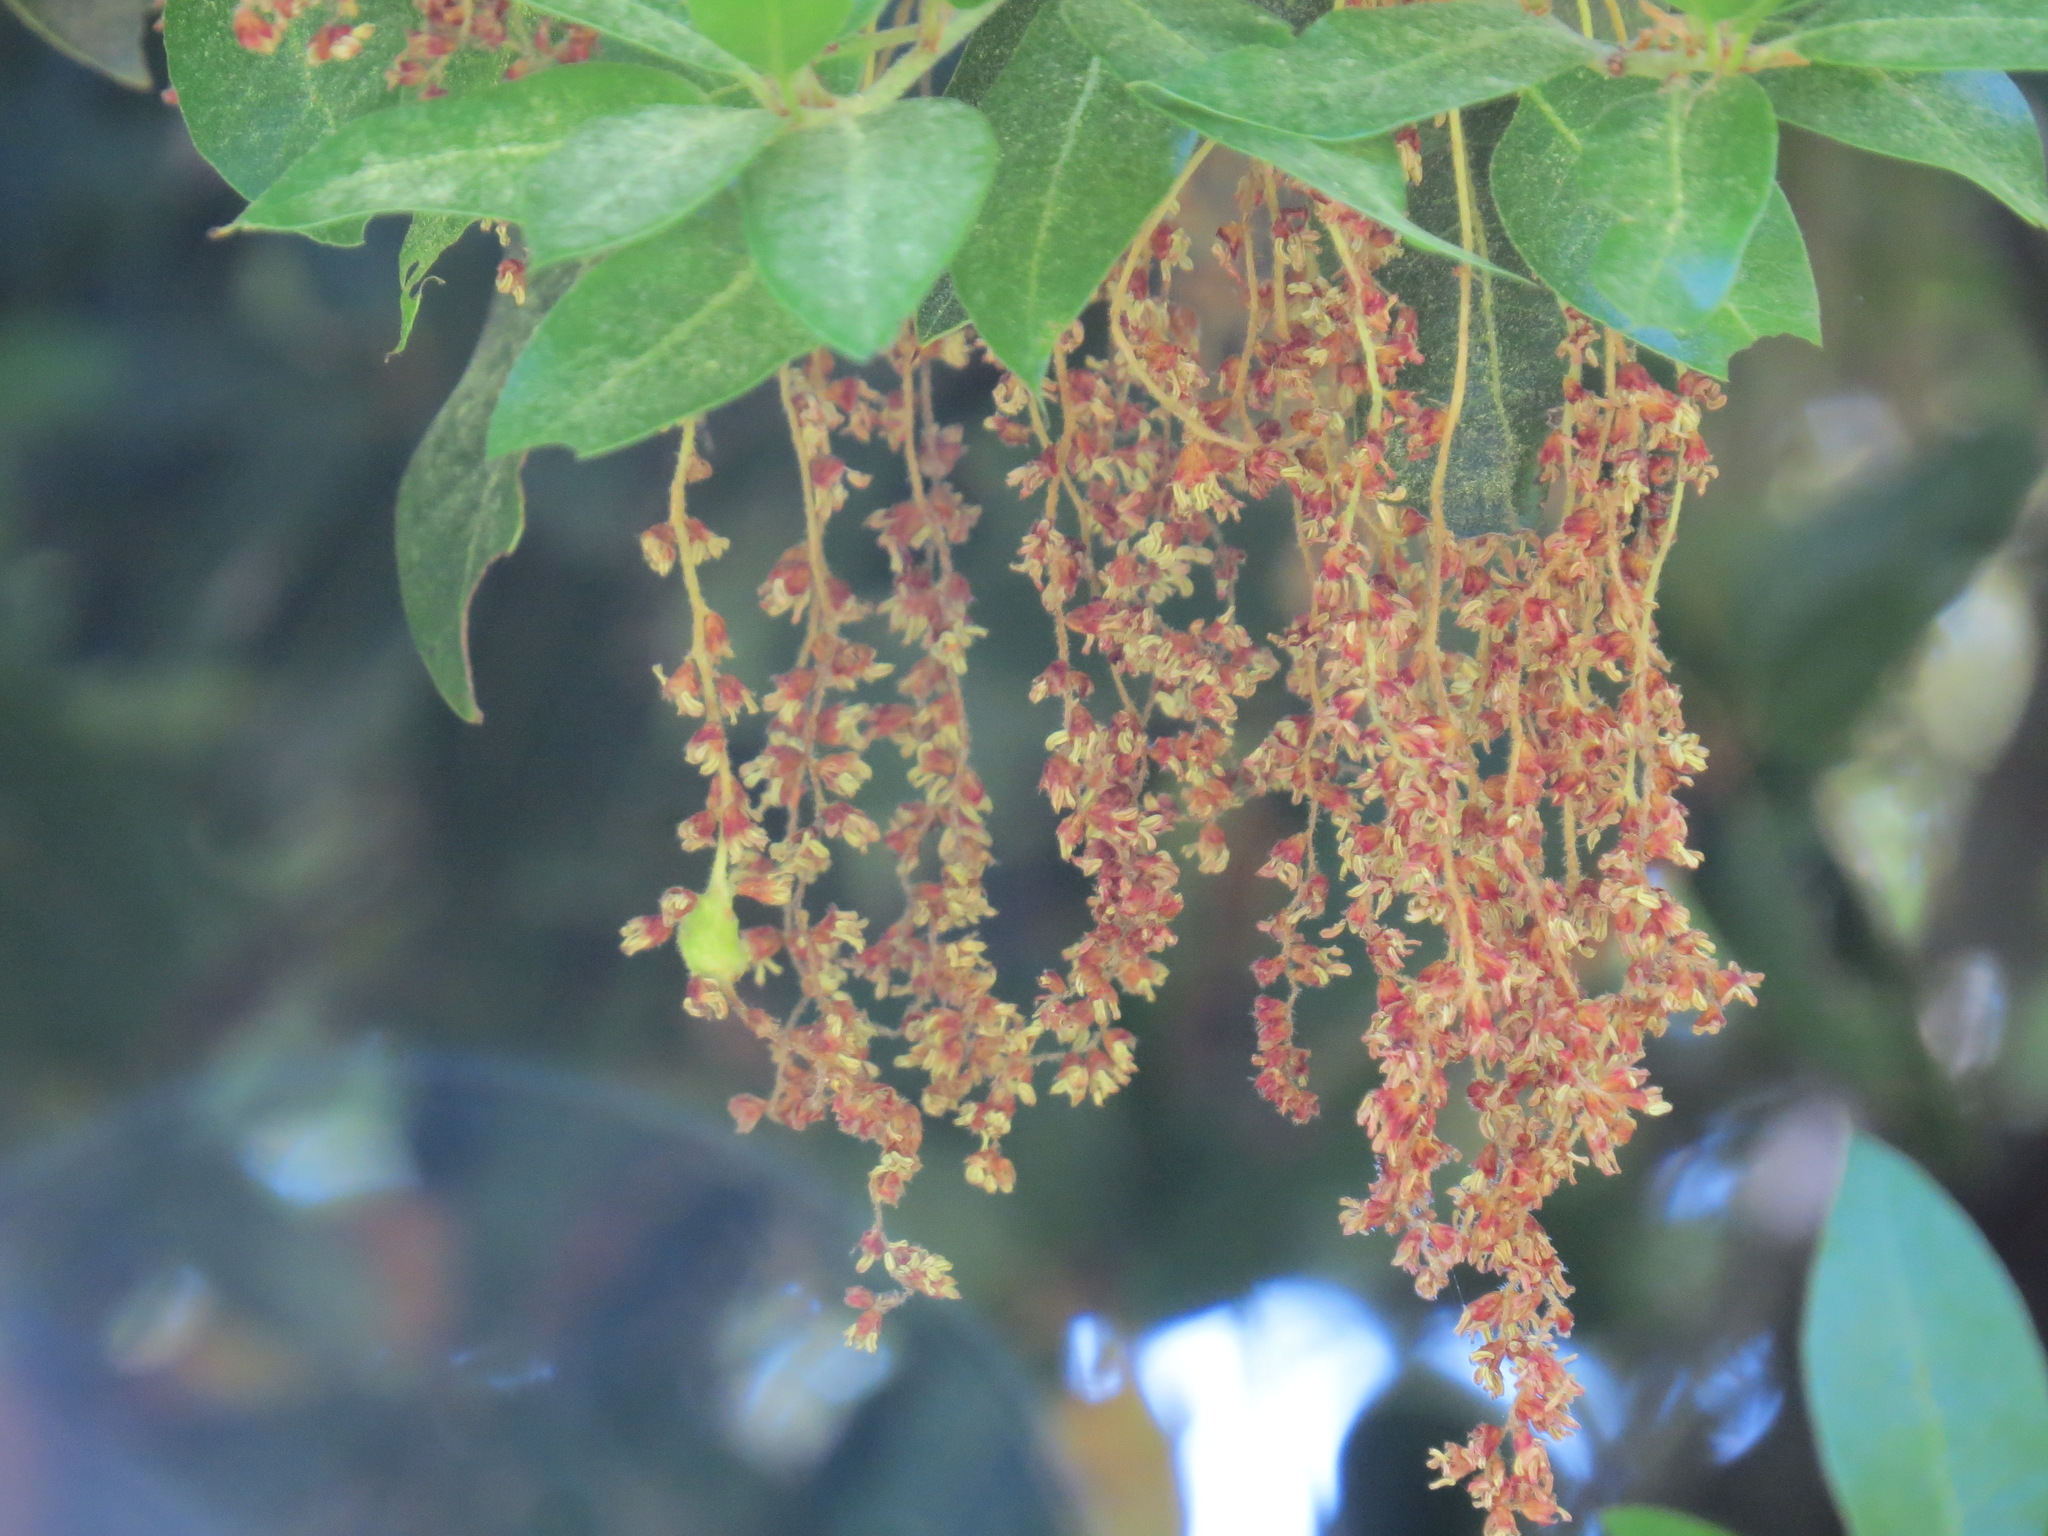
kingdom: Animalia
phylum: Arthropoda
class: Insecta
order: Hymenoptera
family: Cynipidae
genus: Callirhytis
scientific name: Callirhytis
